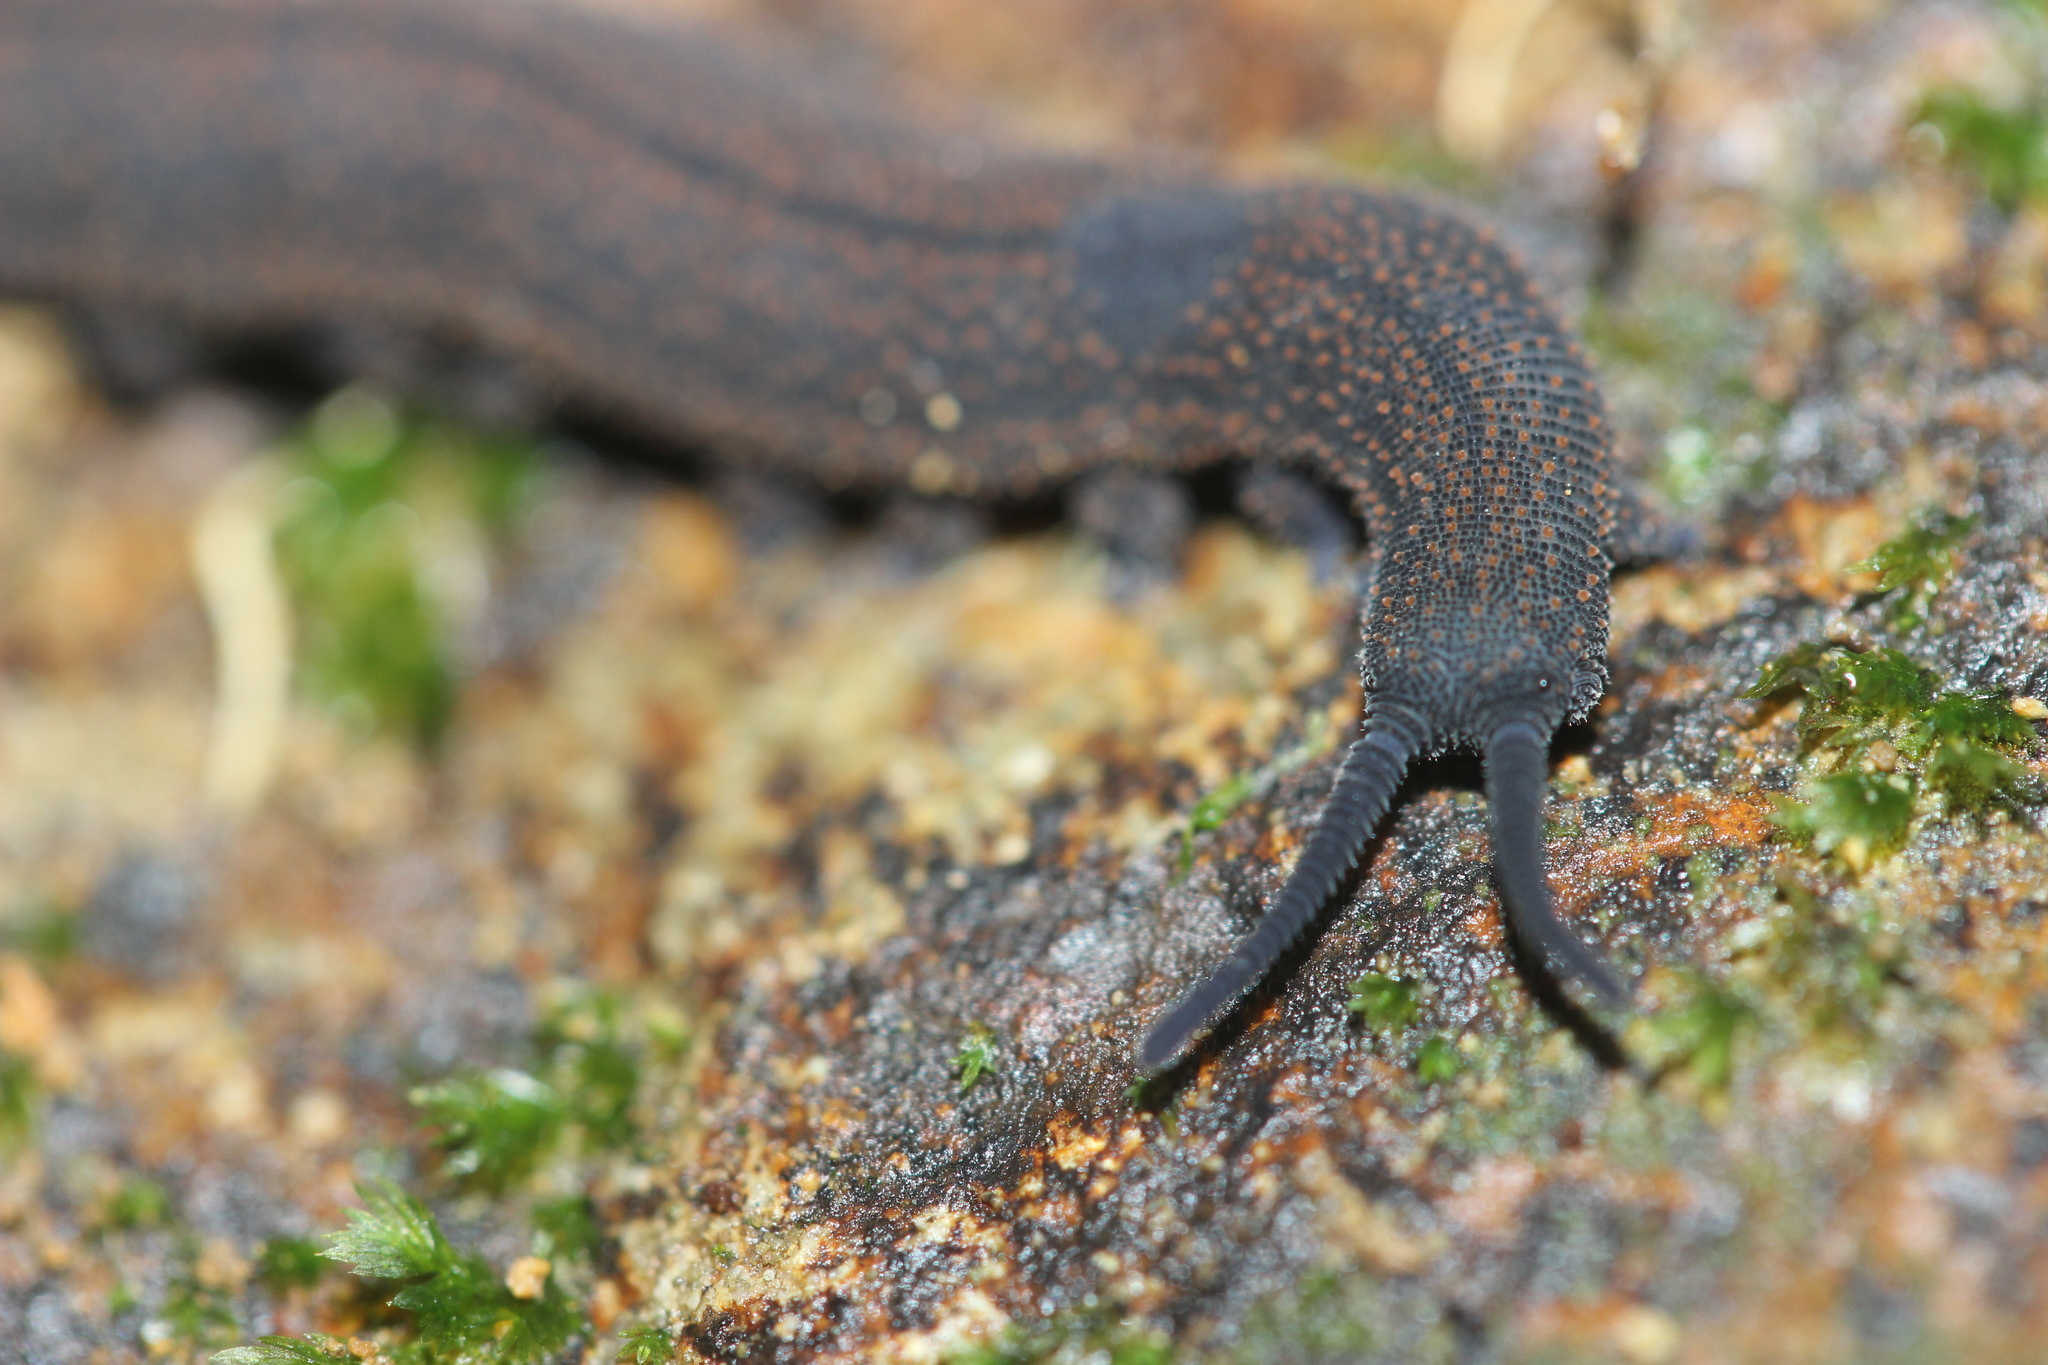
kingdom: Animalia
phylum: Onychophora
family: Peripatopsidae
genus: Peripatoides
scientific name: Peripatoides novaezealandiae
